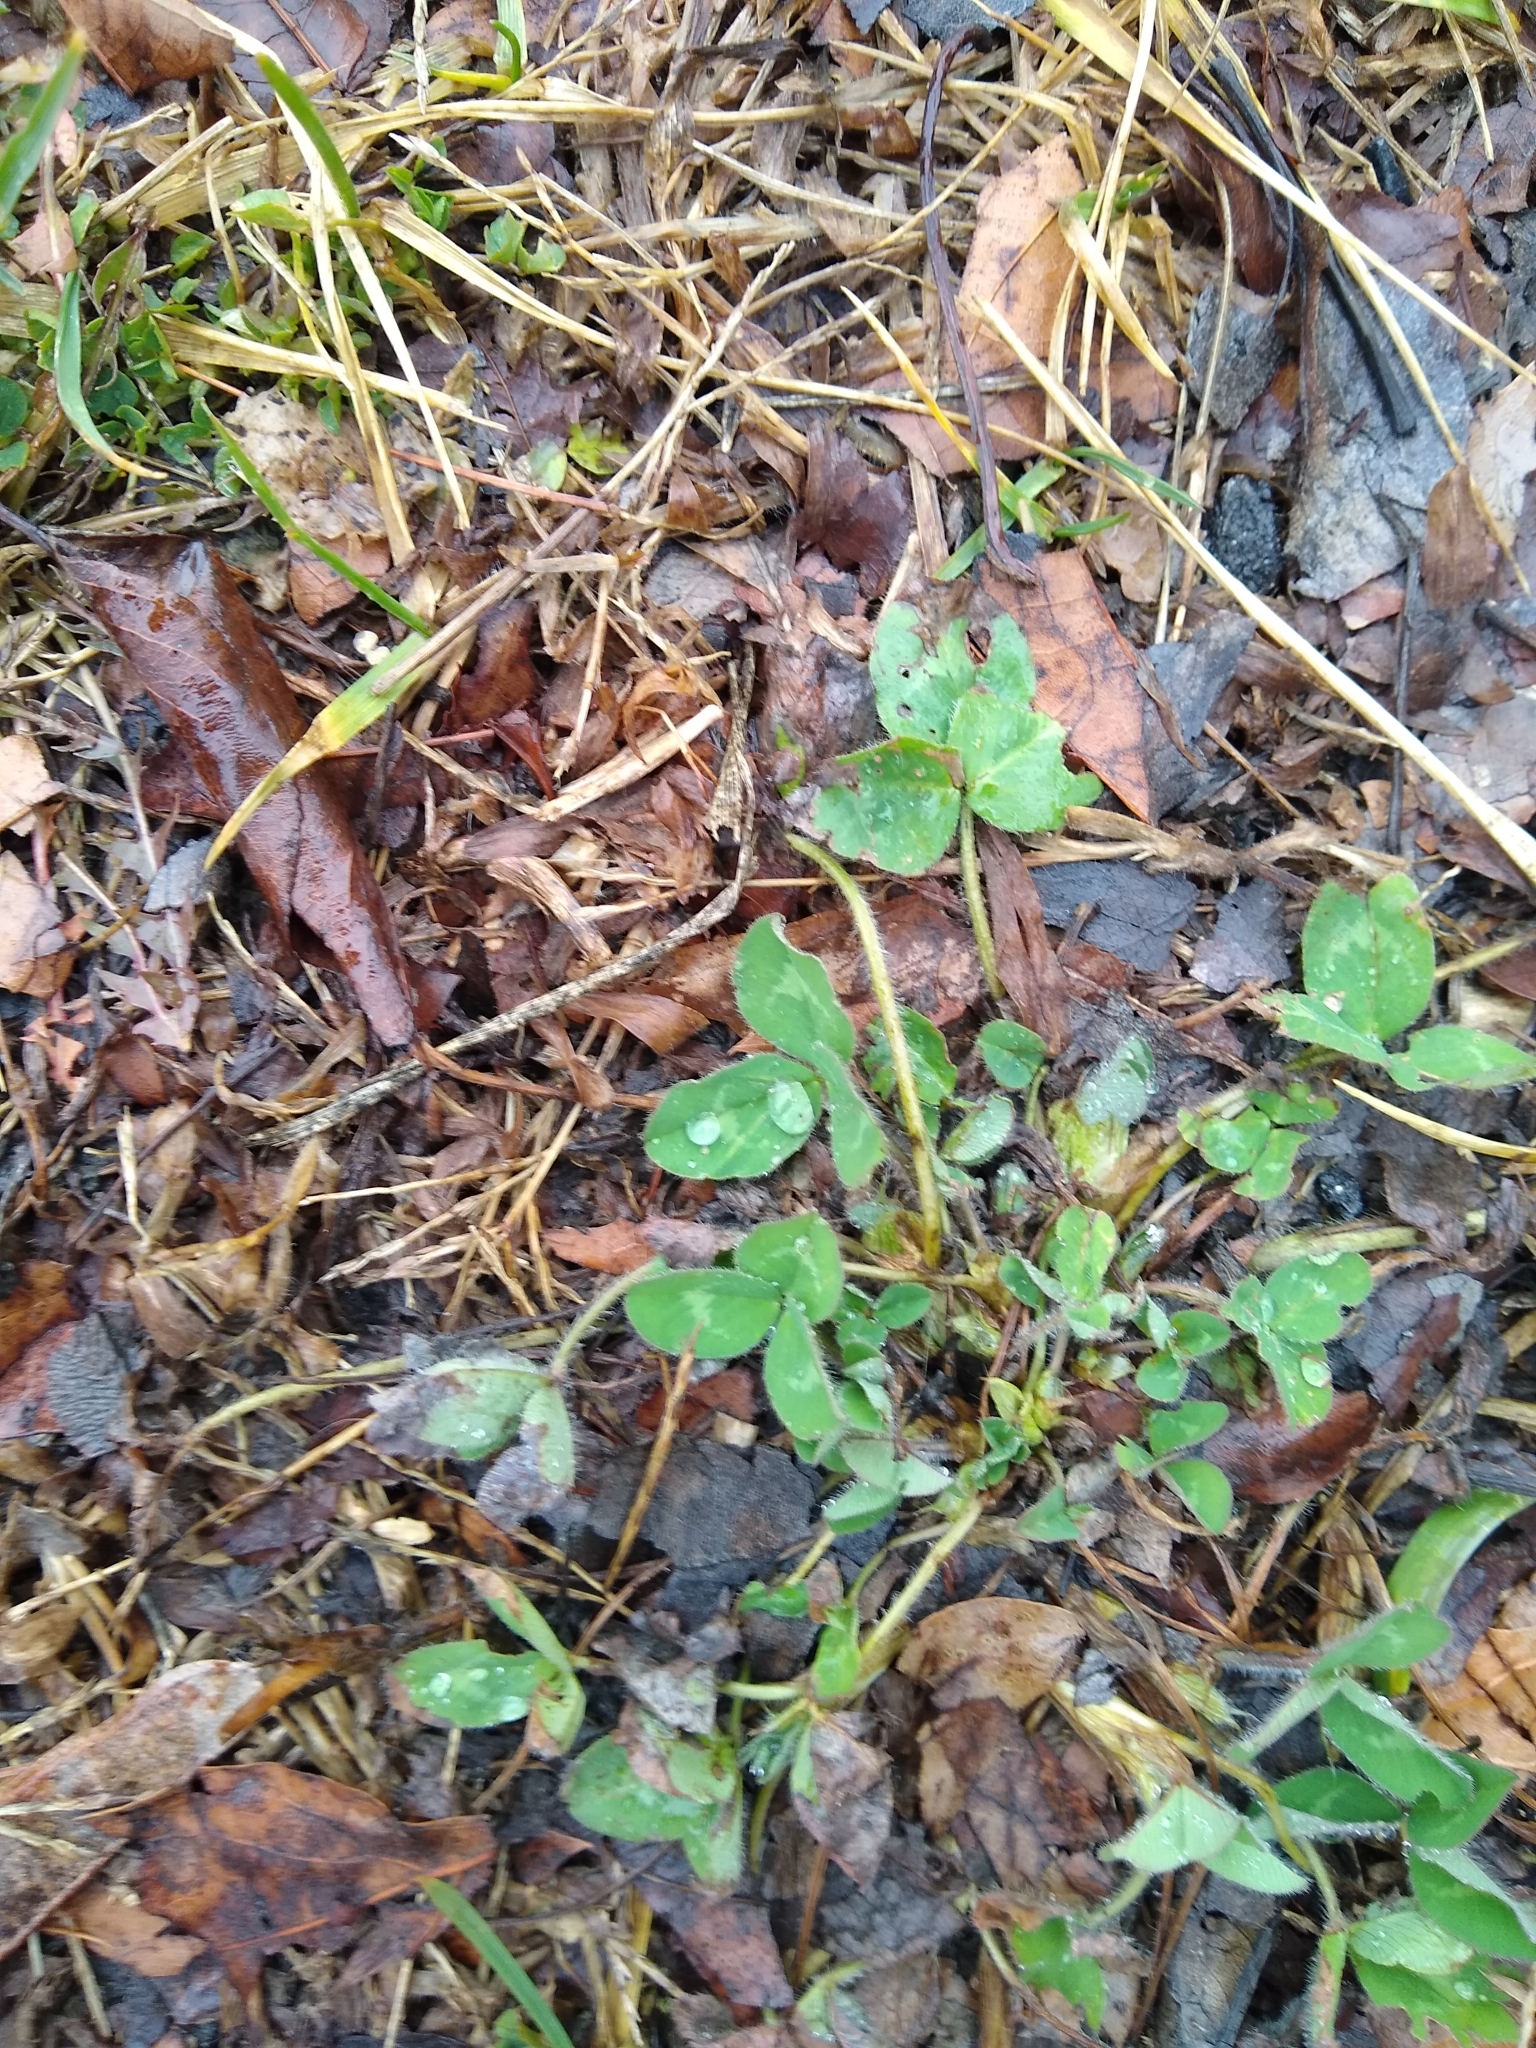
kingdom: Plantae
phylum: Tracheophyta
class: Magnoliopsida
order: Fabales
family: Fabaceae
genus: Trifolium
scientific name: Trifolium pratense
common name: Red clover
